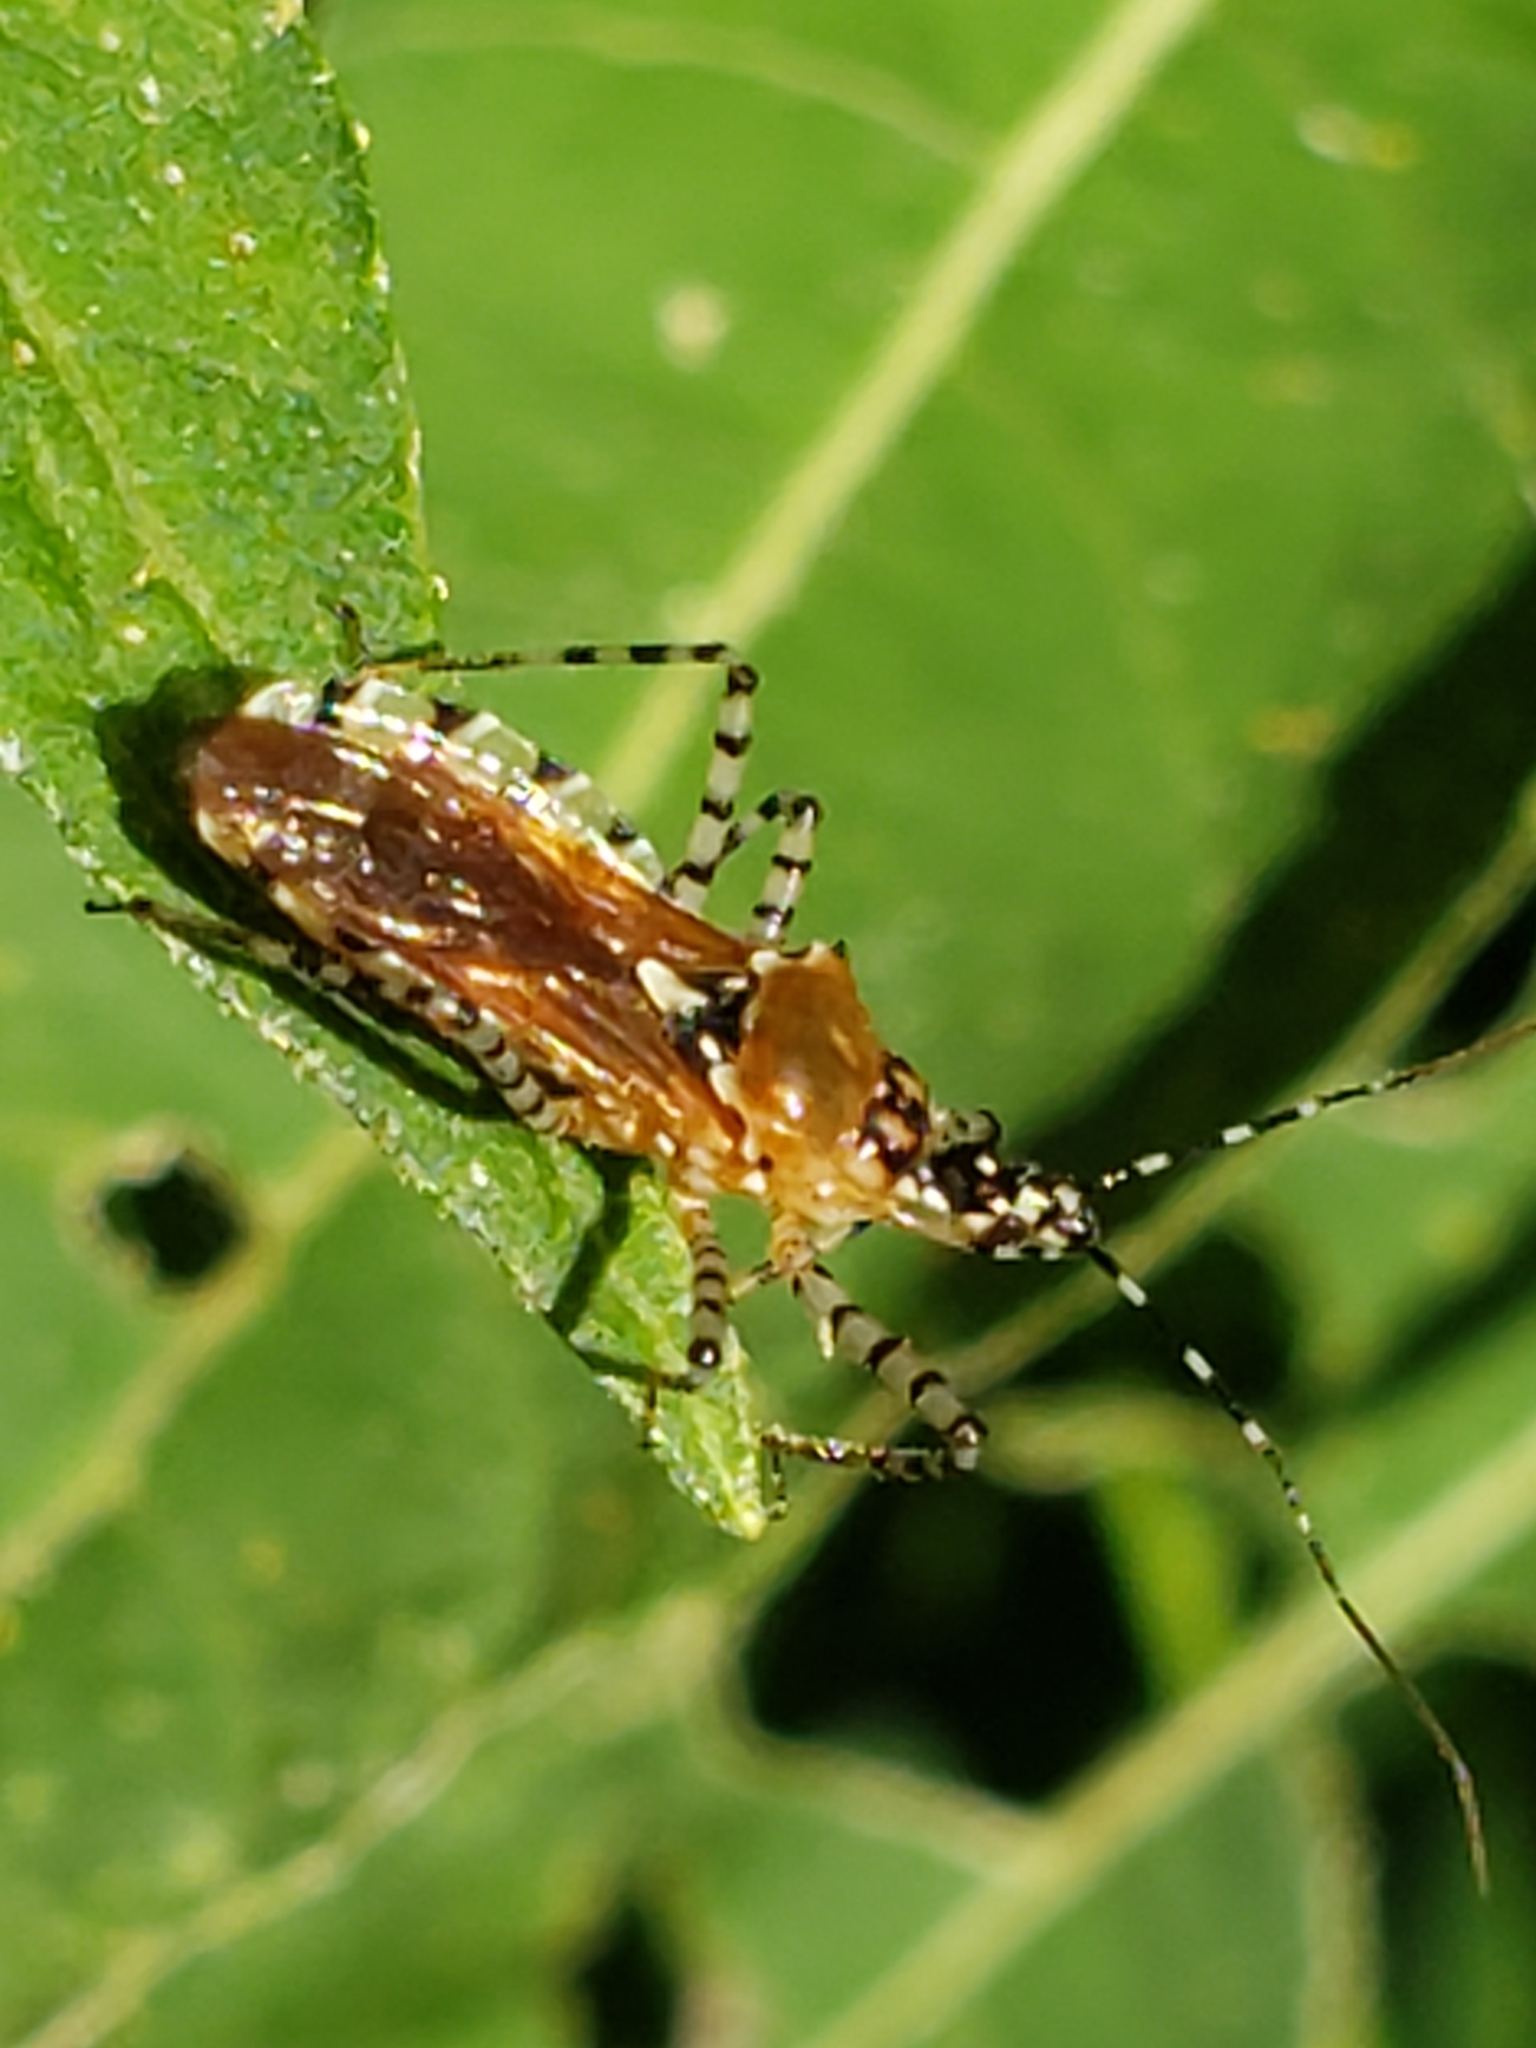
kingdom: Animalia
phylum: Arthropoda
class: Insecta
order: Hemiptera
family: Reduviidae
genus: Pselliopus
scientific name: Pselliopus cinctus
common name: Ringed assassin bug
